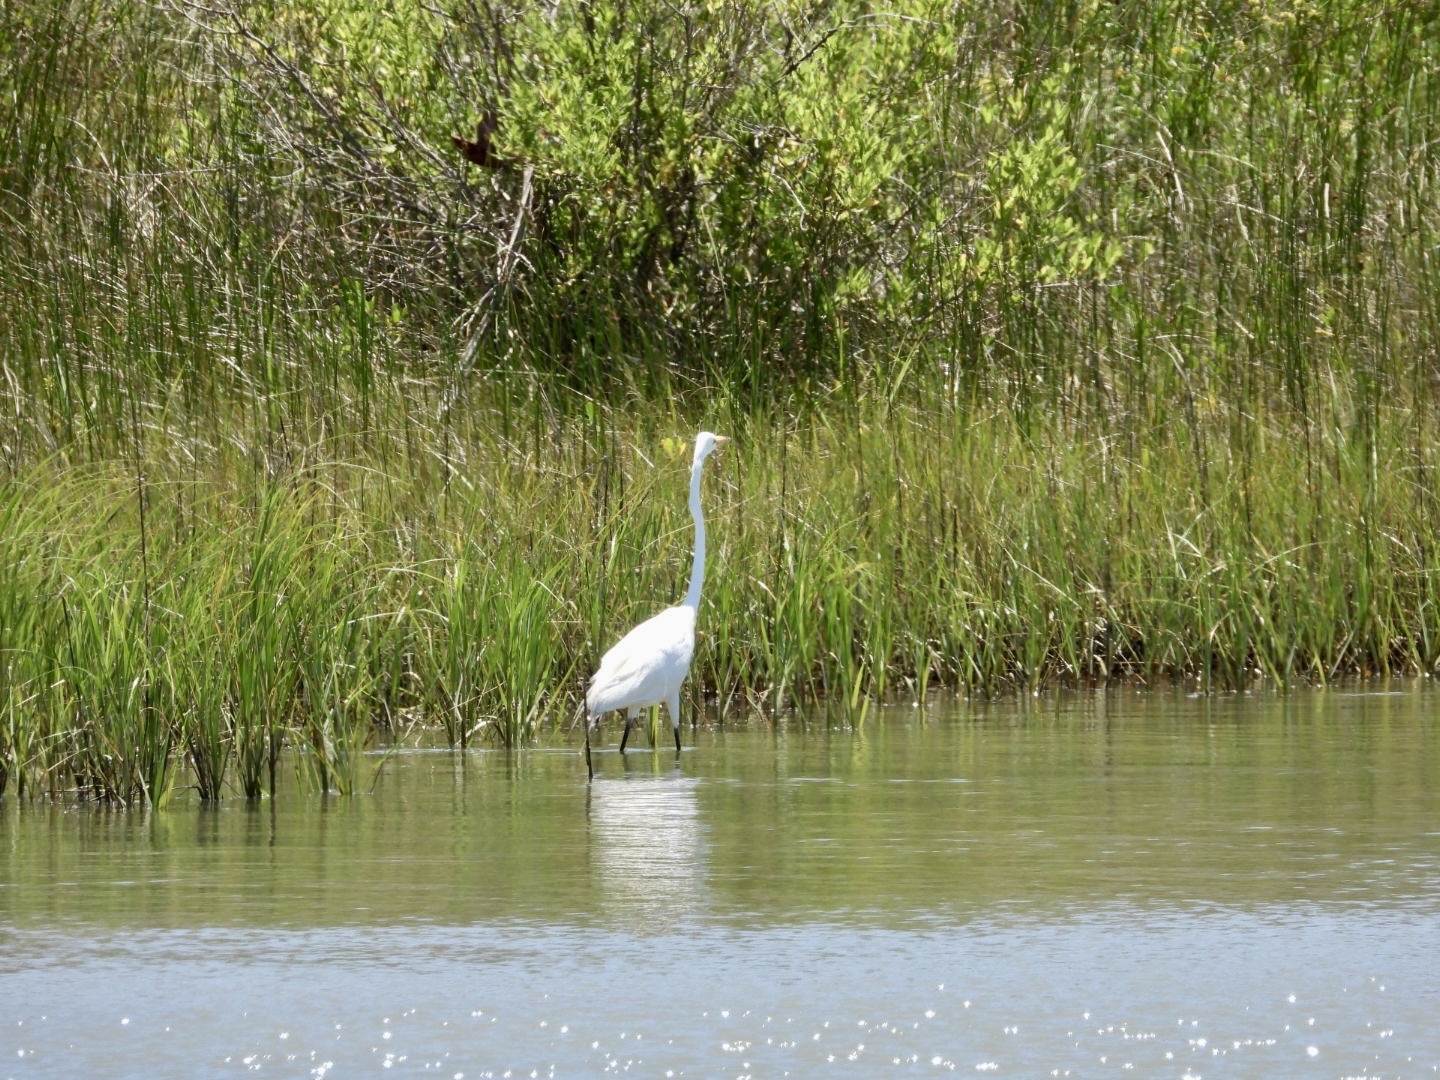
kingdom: Animalia
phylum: Chordata
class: Aves
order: Pelecaniformes
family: Ardeidae
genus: Ardea
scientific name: Ardea alba
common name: Great egret
